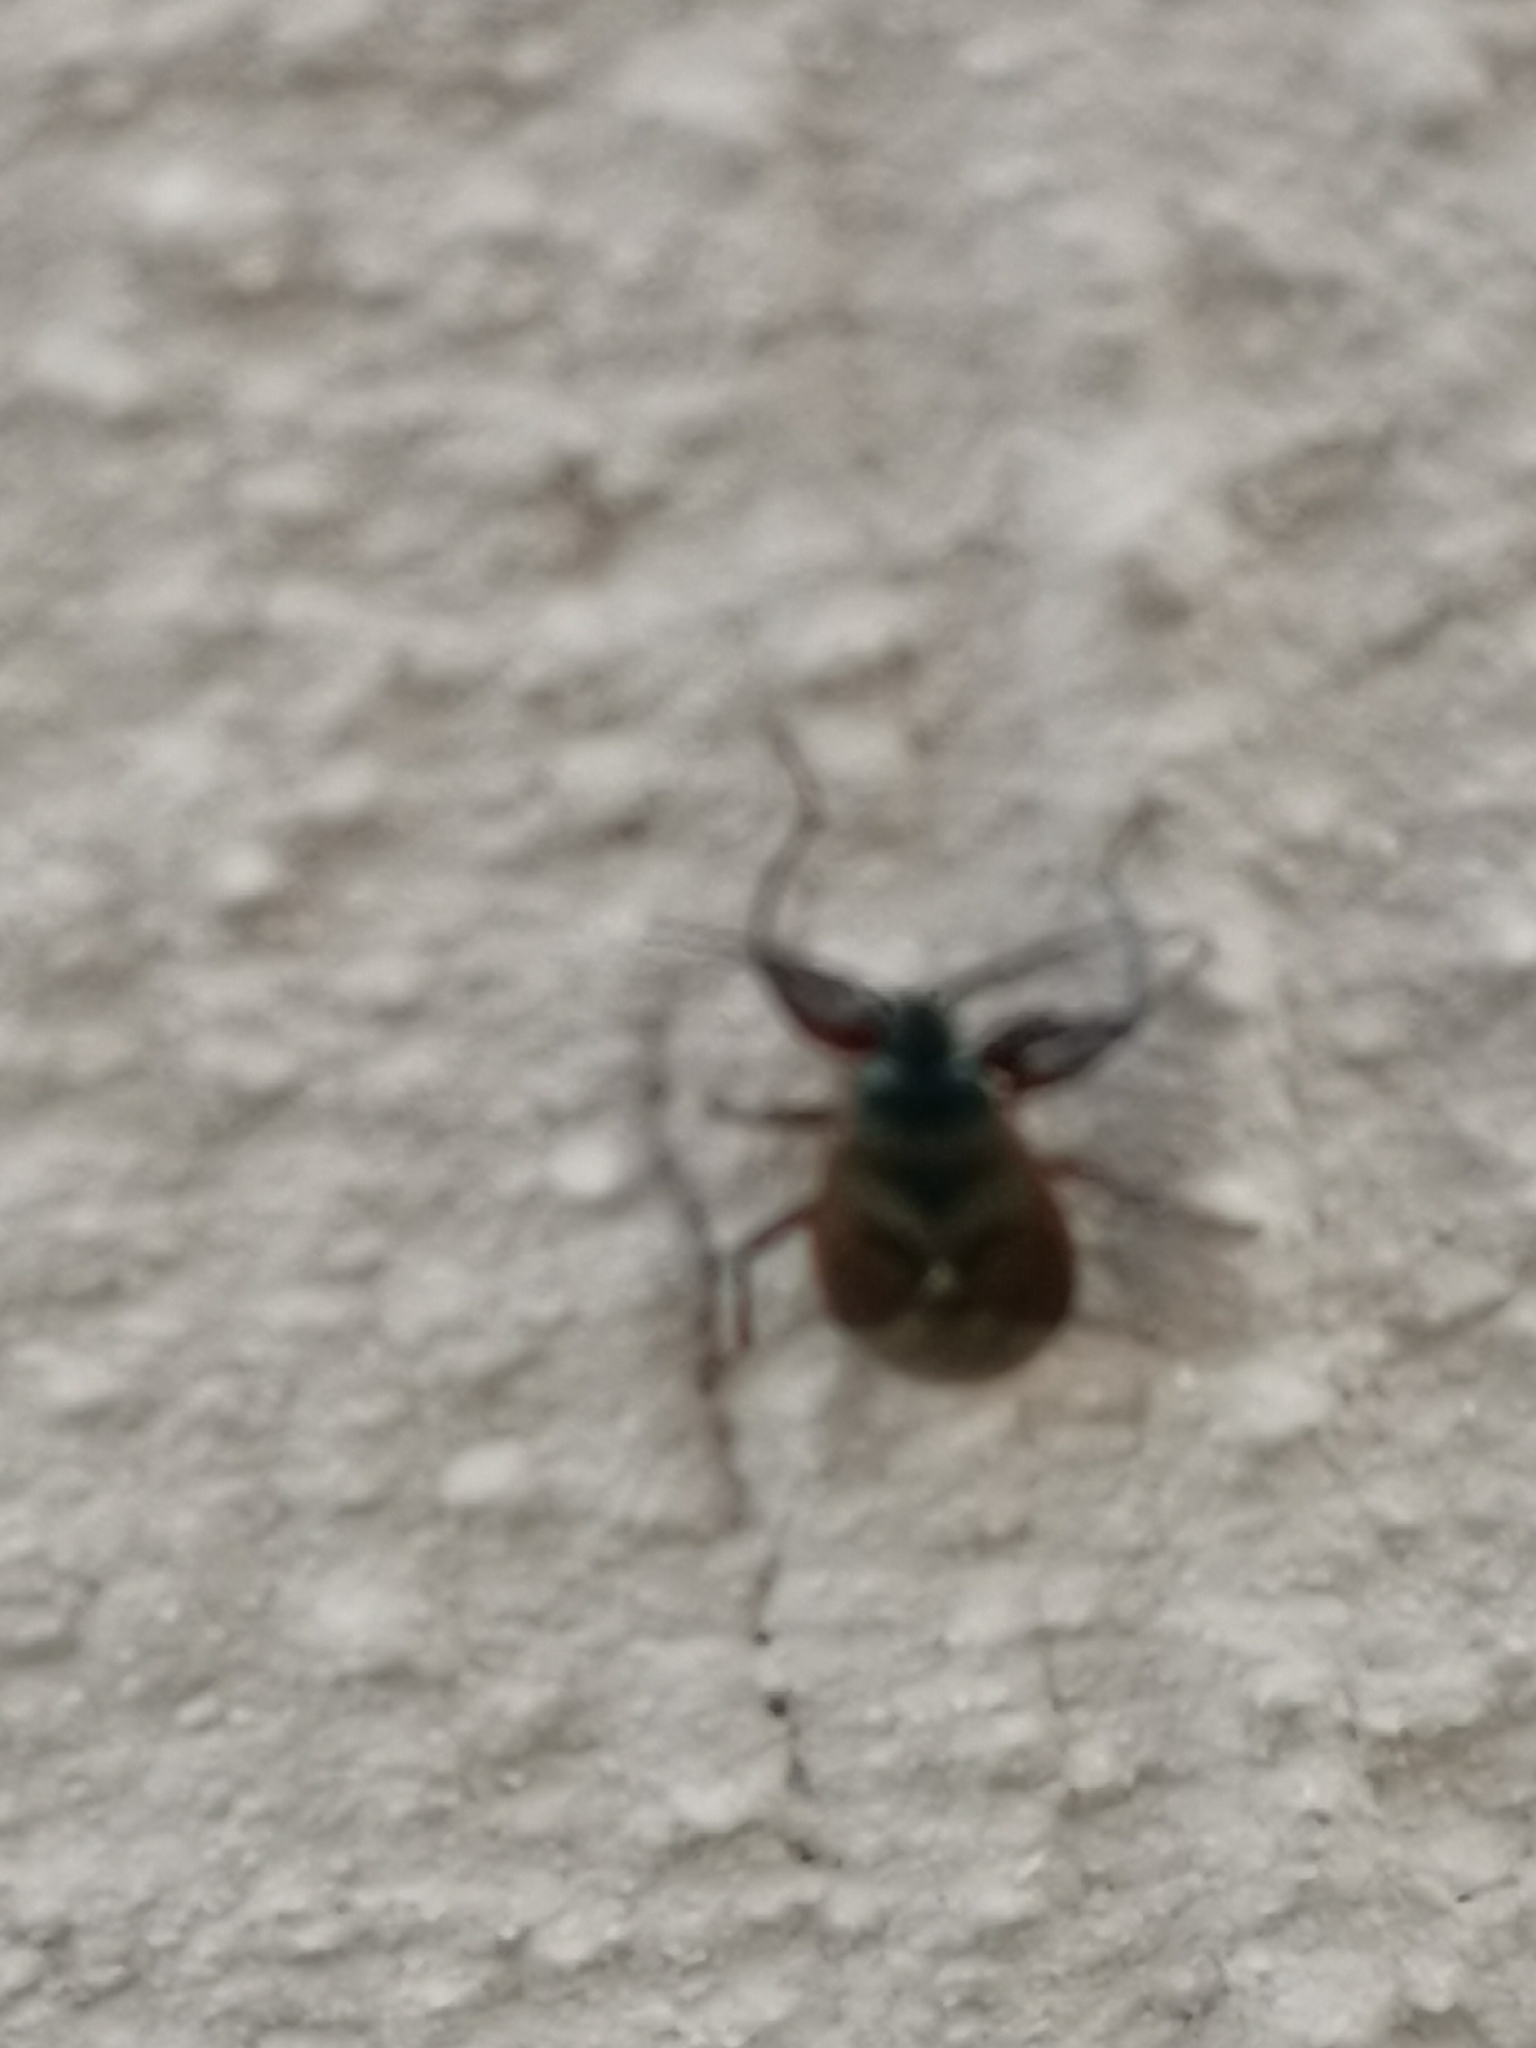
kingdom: Animalia
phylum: Arthropoda
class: Insecta
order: Hemiptera
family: Rhyparochromidae
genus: Gastrodes
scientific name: Gastrodes abietum
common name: Spruce cone bug
